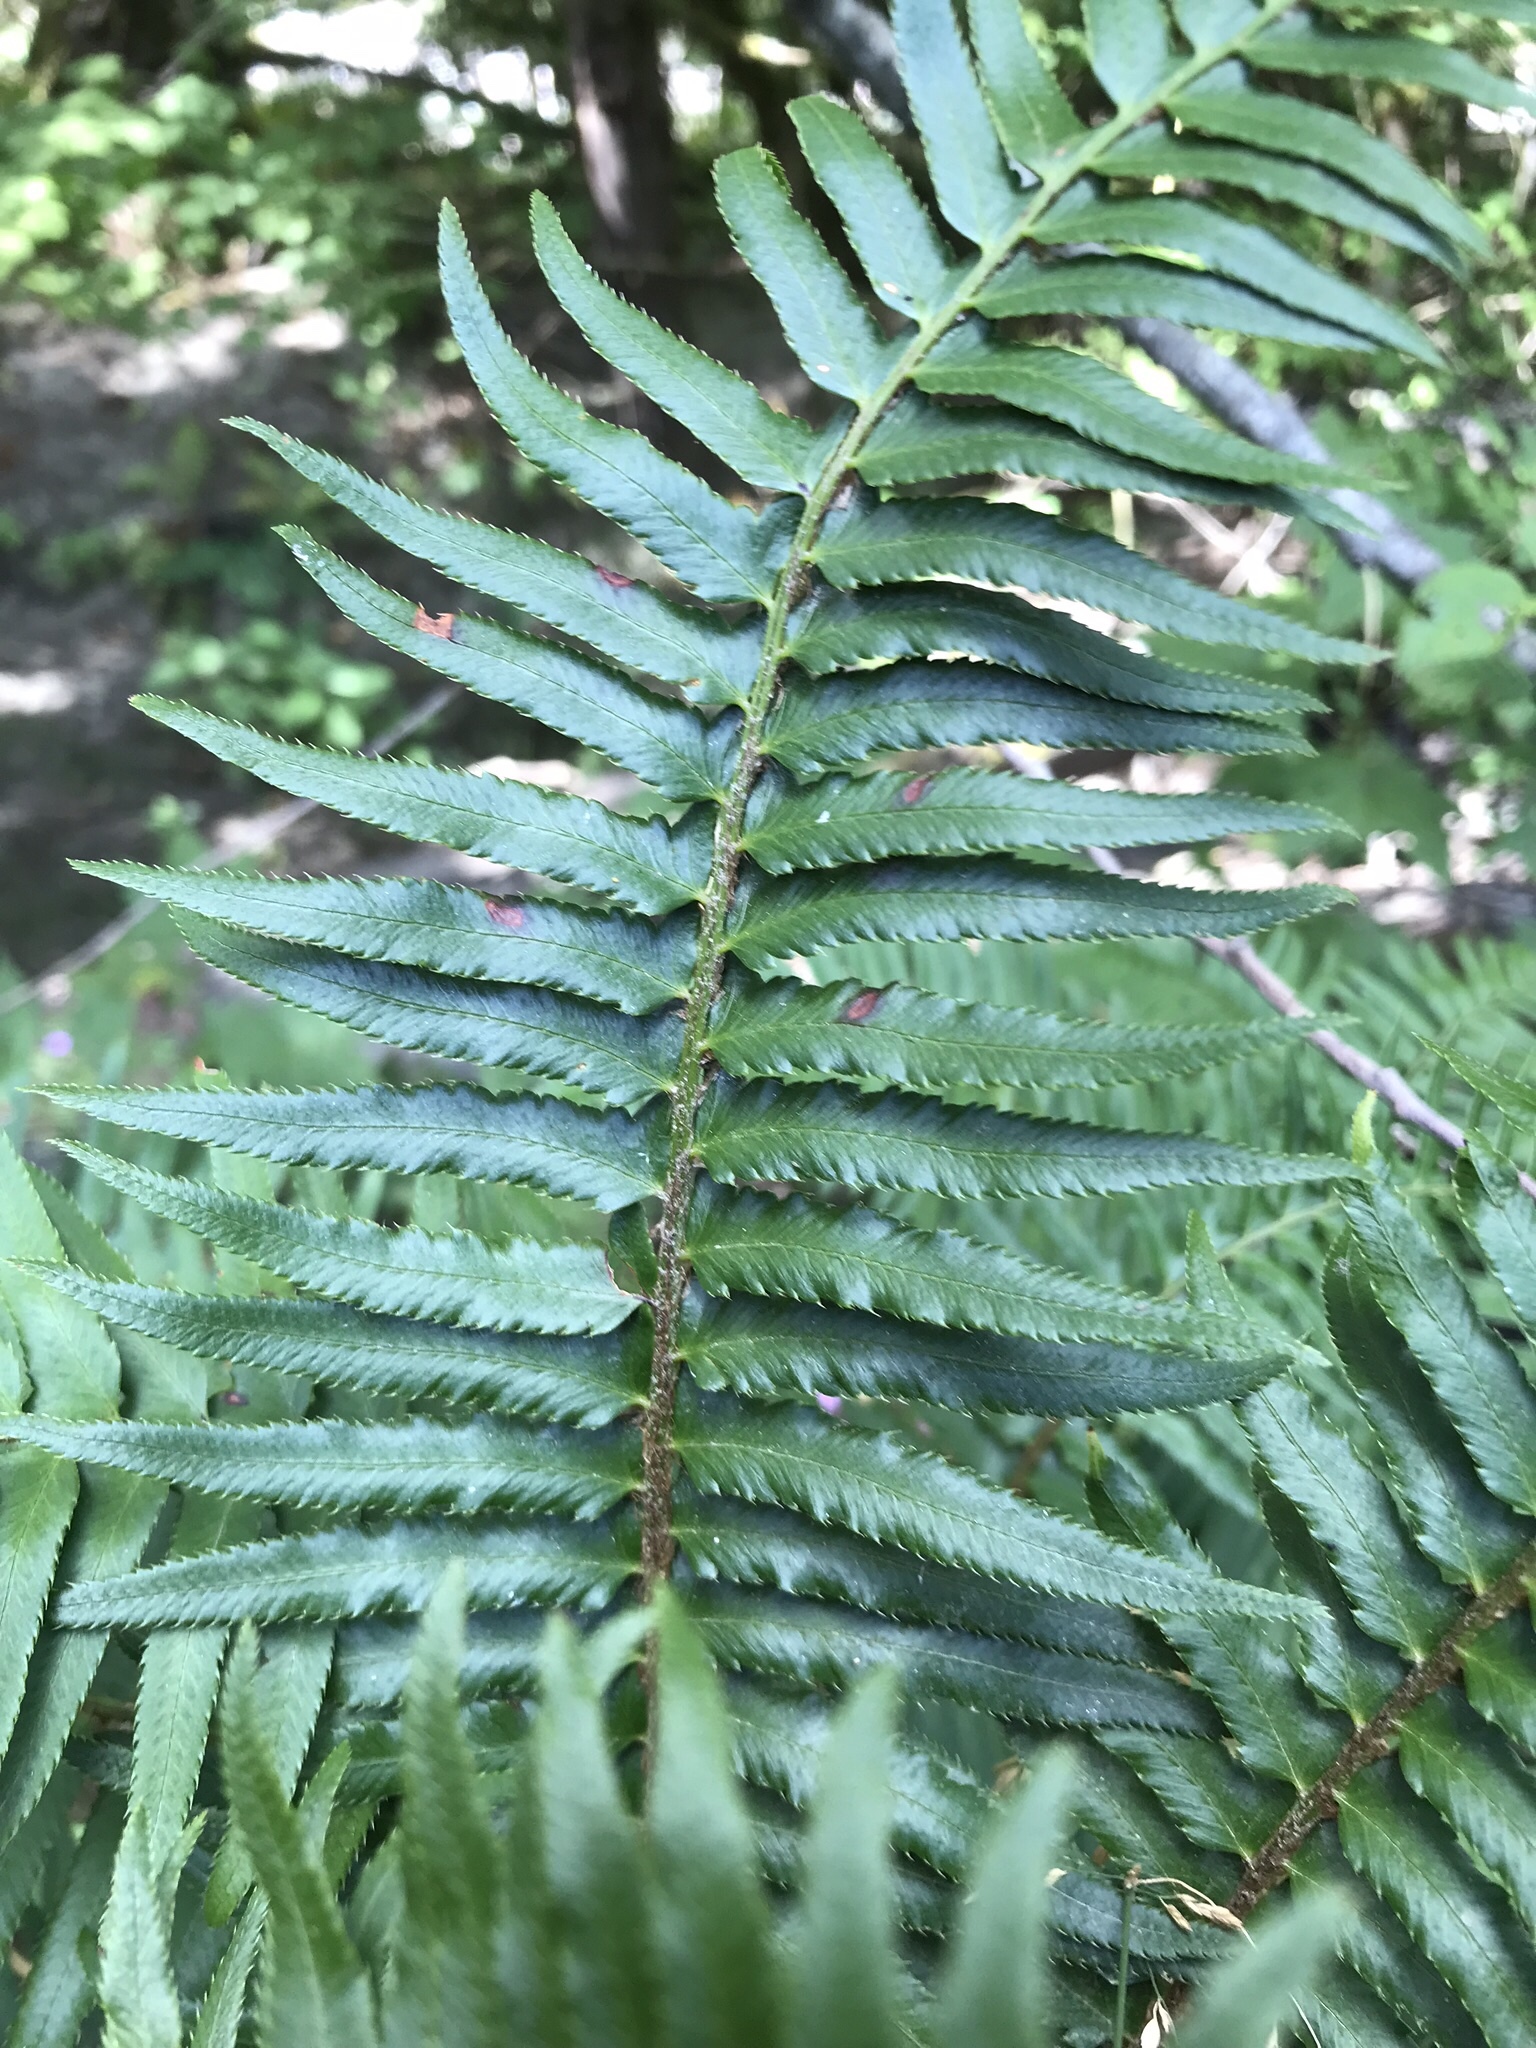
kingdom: Plantae
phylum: Tracheophyta
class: Polypodiopsida
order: Polypodiales
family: Dryopteridaceae
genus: Polystichum
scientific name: Polystichum munitum
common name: Western sword-fern
